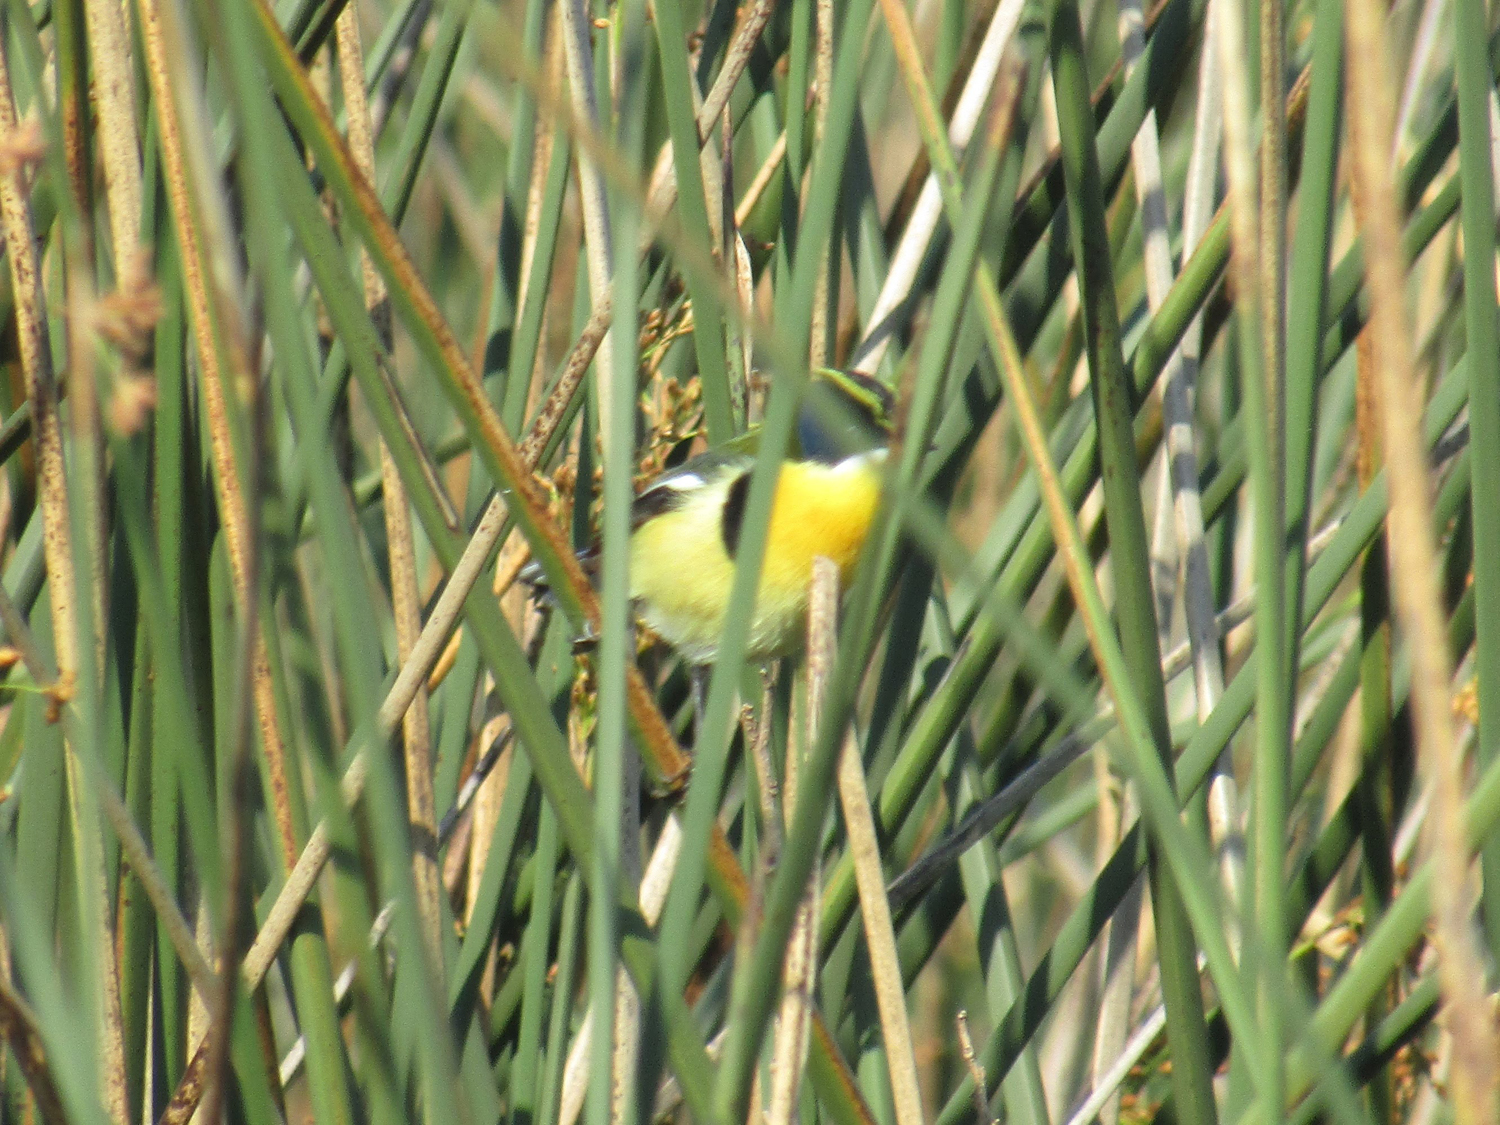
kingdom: Animalia
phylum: Chordata
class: Aves
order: Passeriformes
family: Tyrannidae
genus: Tachuris
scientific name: Tachuris rubrigastra
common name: Many-colored rush tyrant
